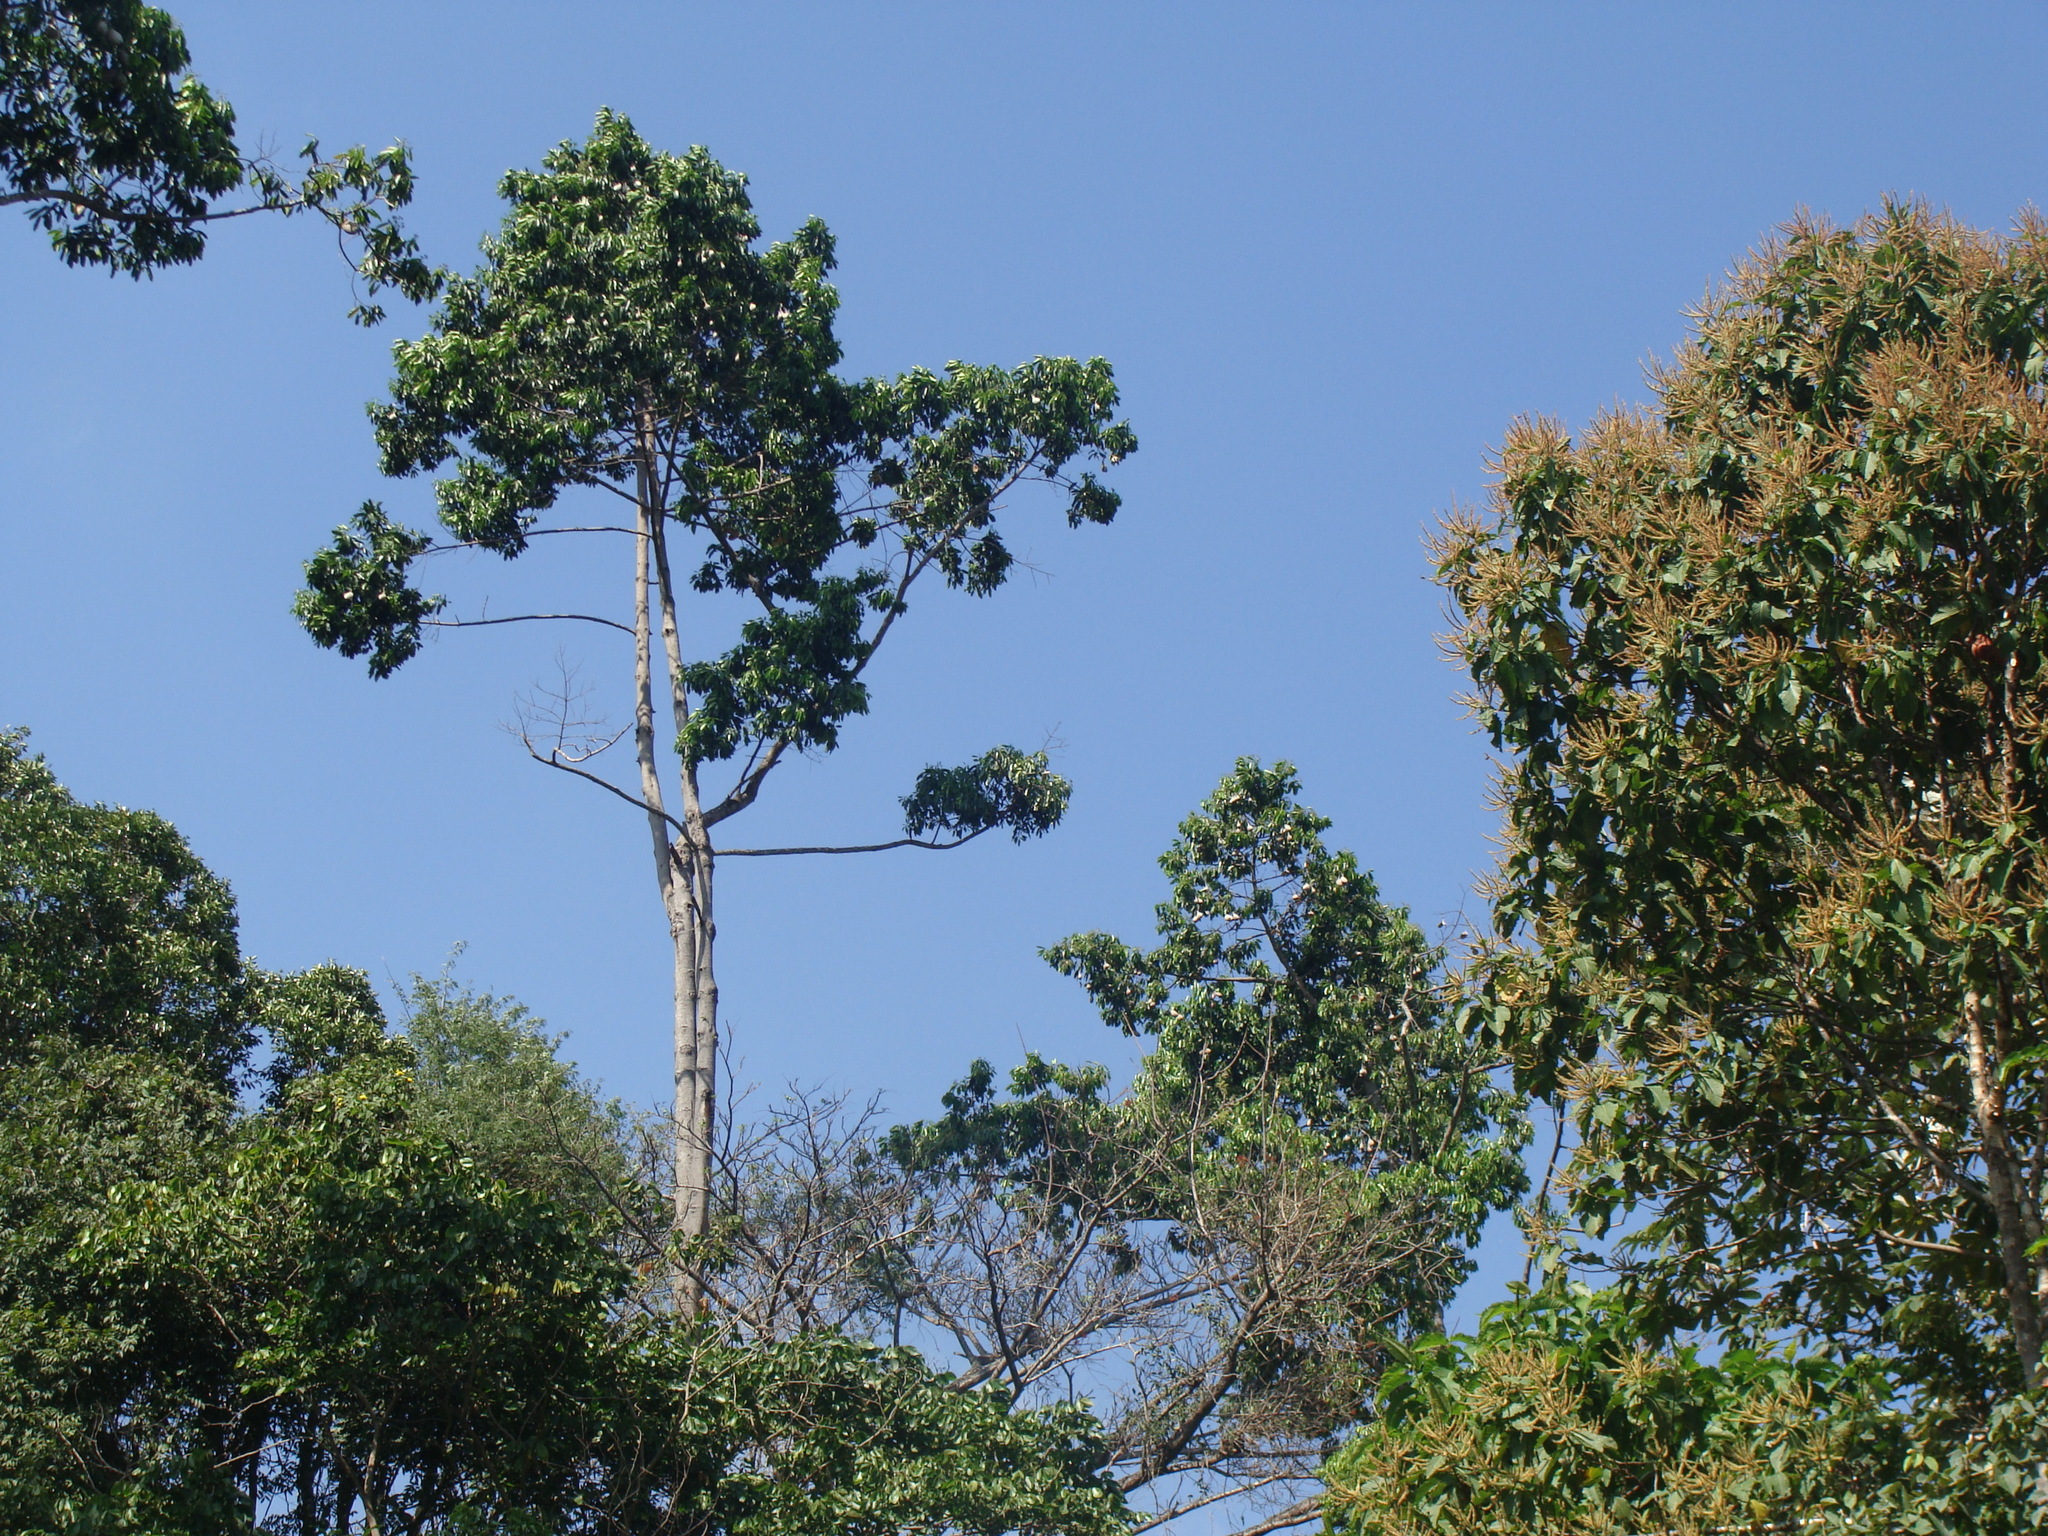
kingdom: Plantae
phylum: Tracheophyta
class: Magnoliopsida
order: Gentianales
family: Apocynaceae
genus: Aspidosperma
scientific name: Aspidosperma cruentum
